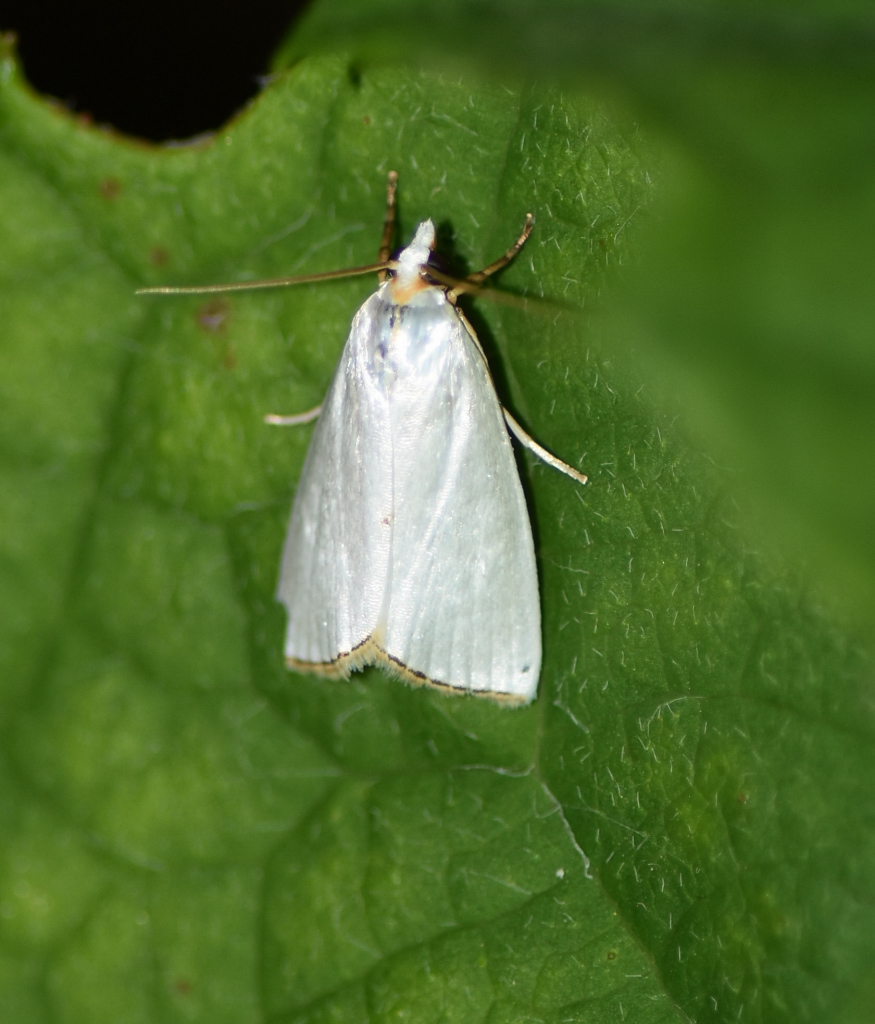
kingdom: Animalia
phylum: Arthropoda
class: Insecta
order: Lepidoptera
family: Crambidae
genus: Argyria
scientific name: Argyria nivalis
